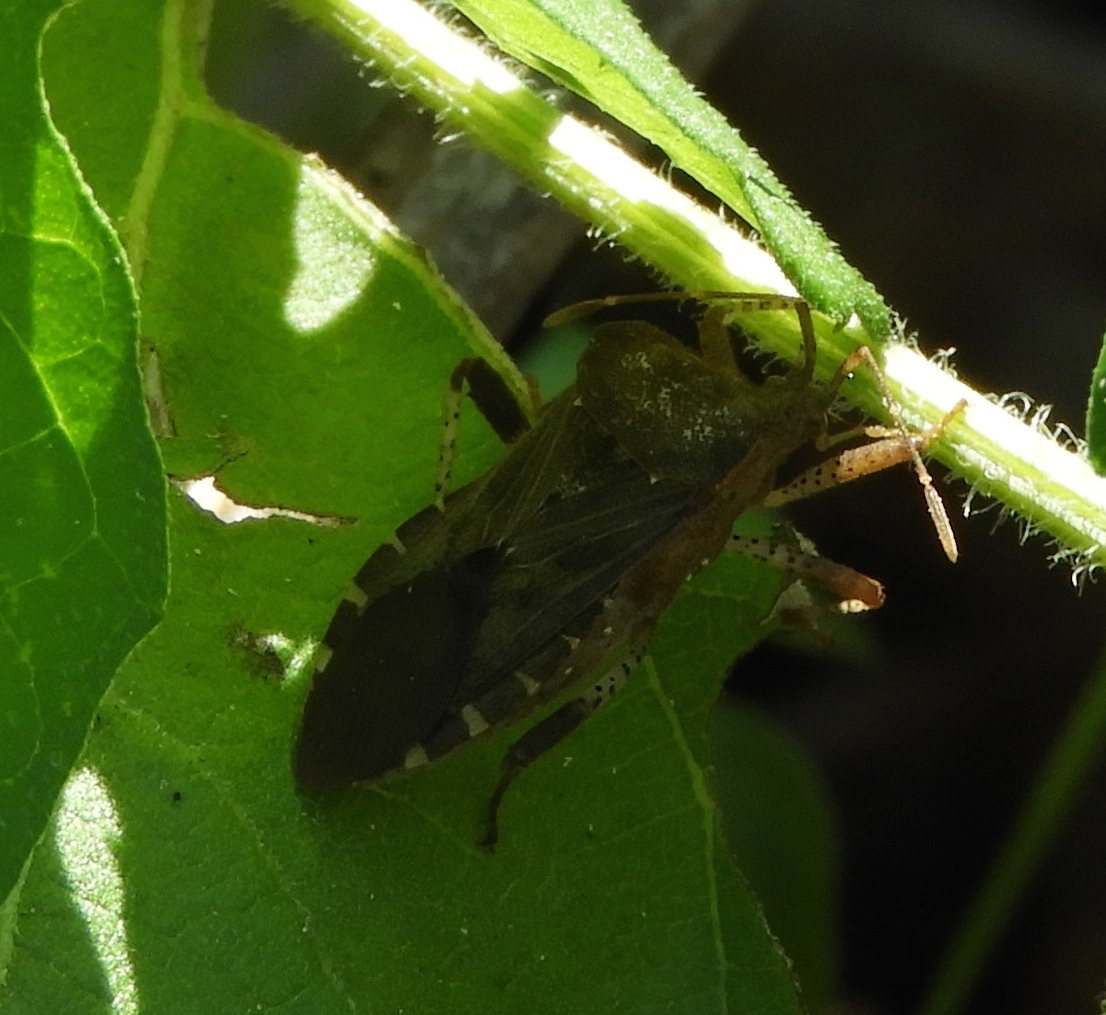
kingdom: Animalia
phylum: Arthropoda
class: Insecta
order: Hemiptera
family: Coreidae
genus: Anasa
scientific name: Anasa
